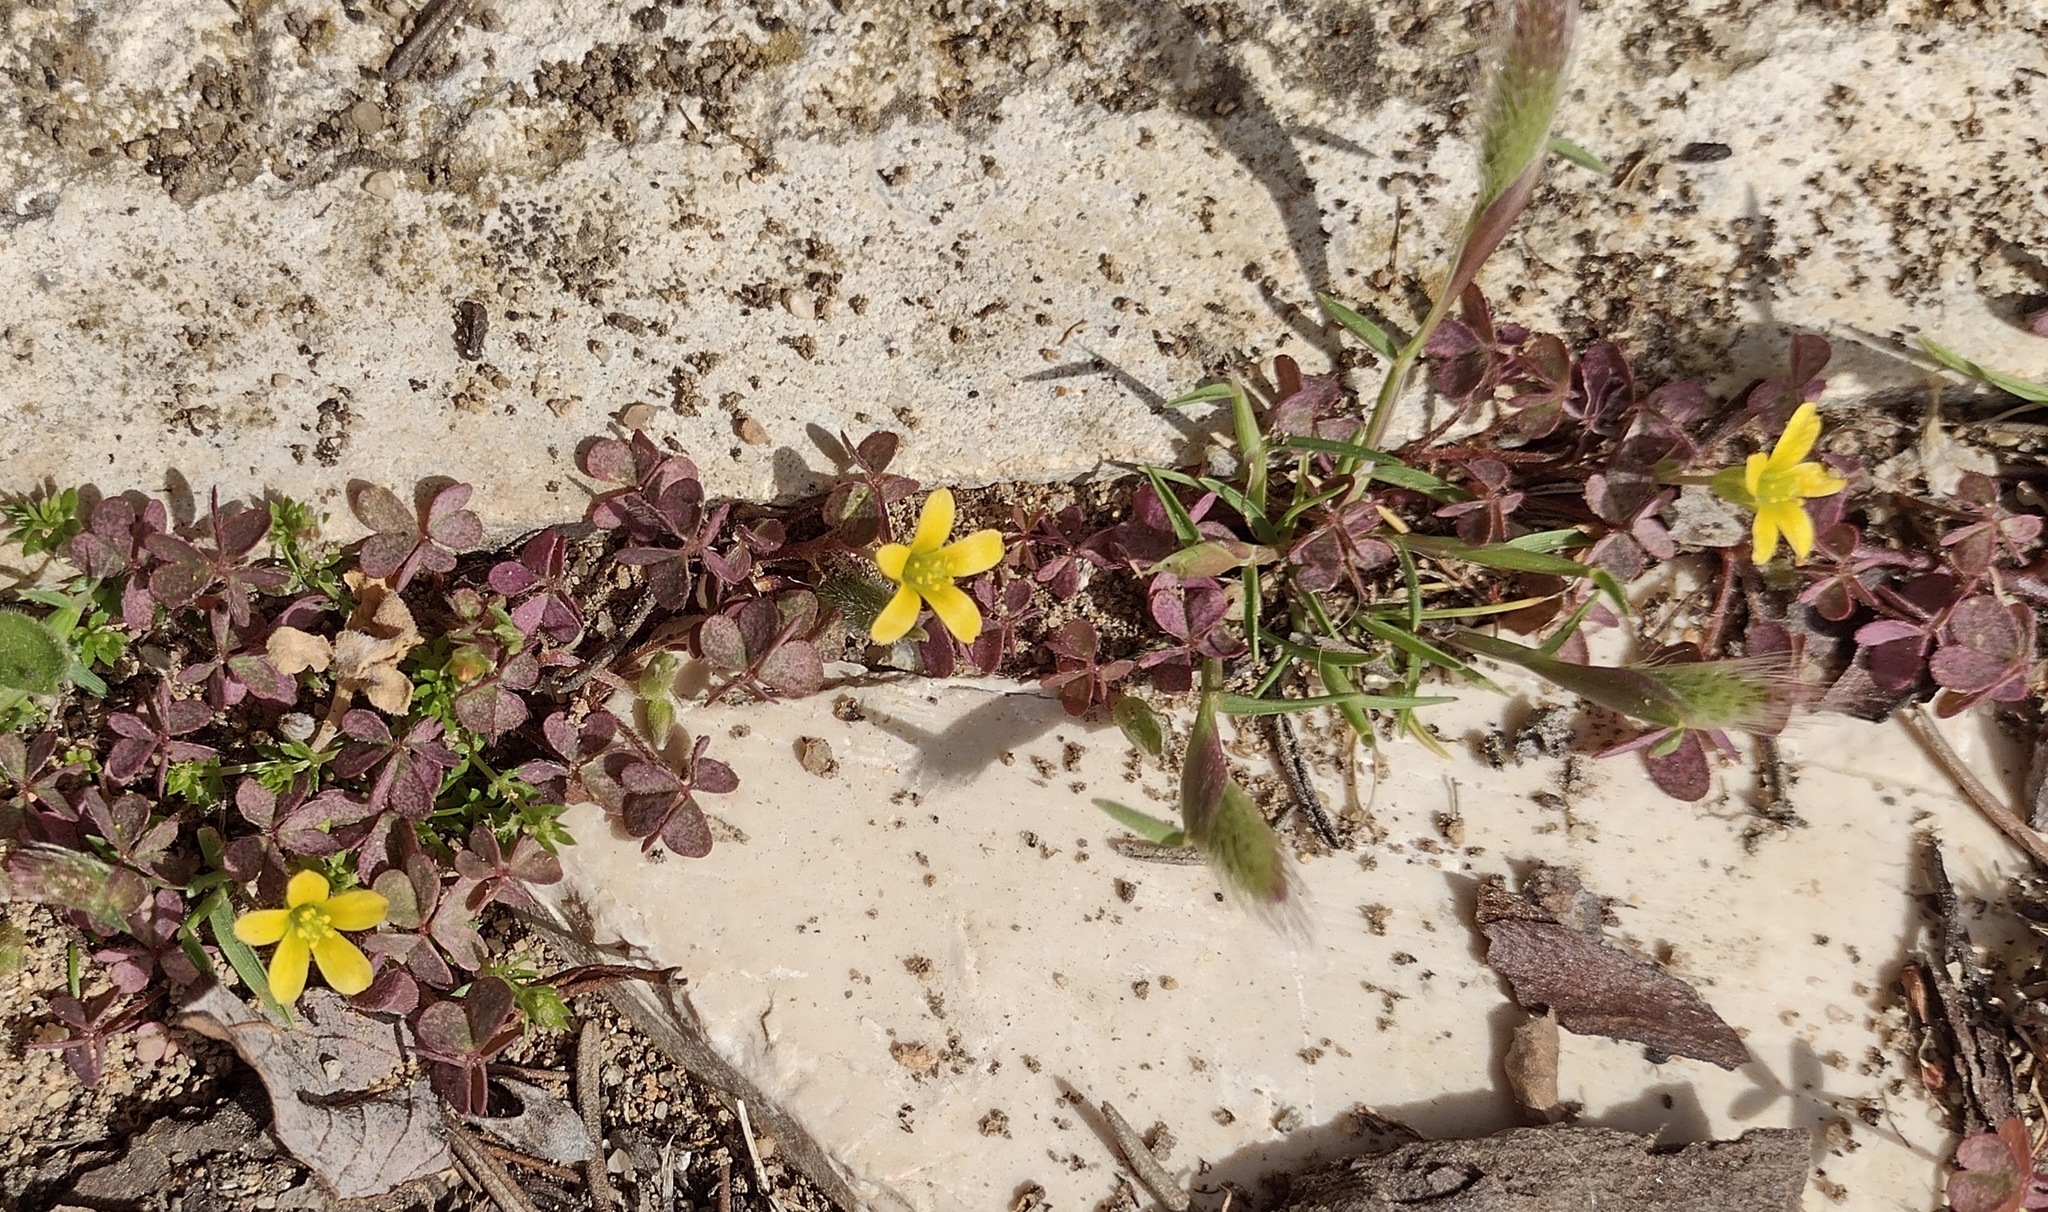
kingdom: Plantae
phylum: Tracheophyta
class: Magnoliopsida
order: Oxalidales
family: Oxalidaceae
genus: Oxalis
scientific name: Oxalis corniculata
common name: Procumbent yellow-sorrel
